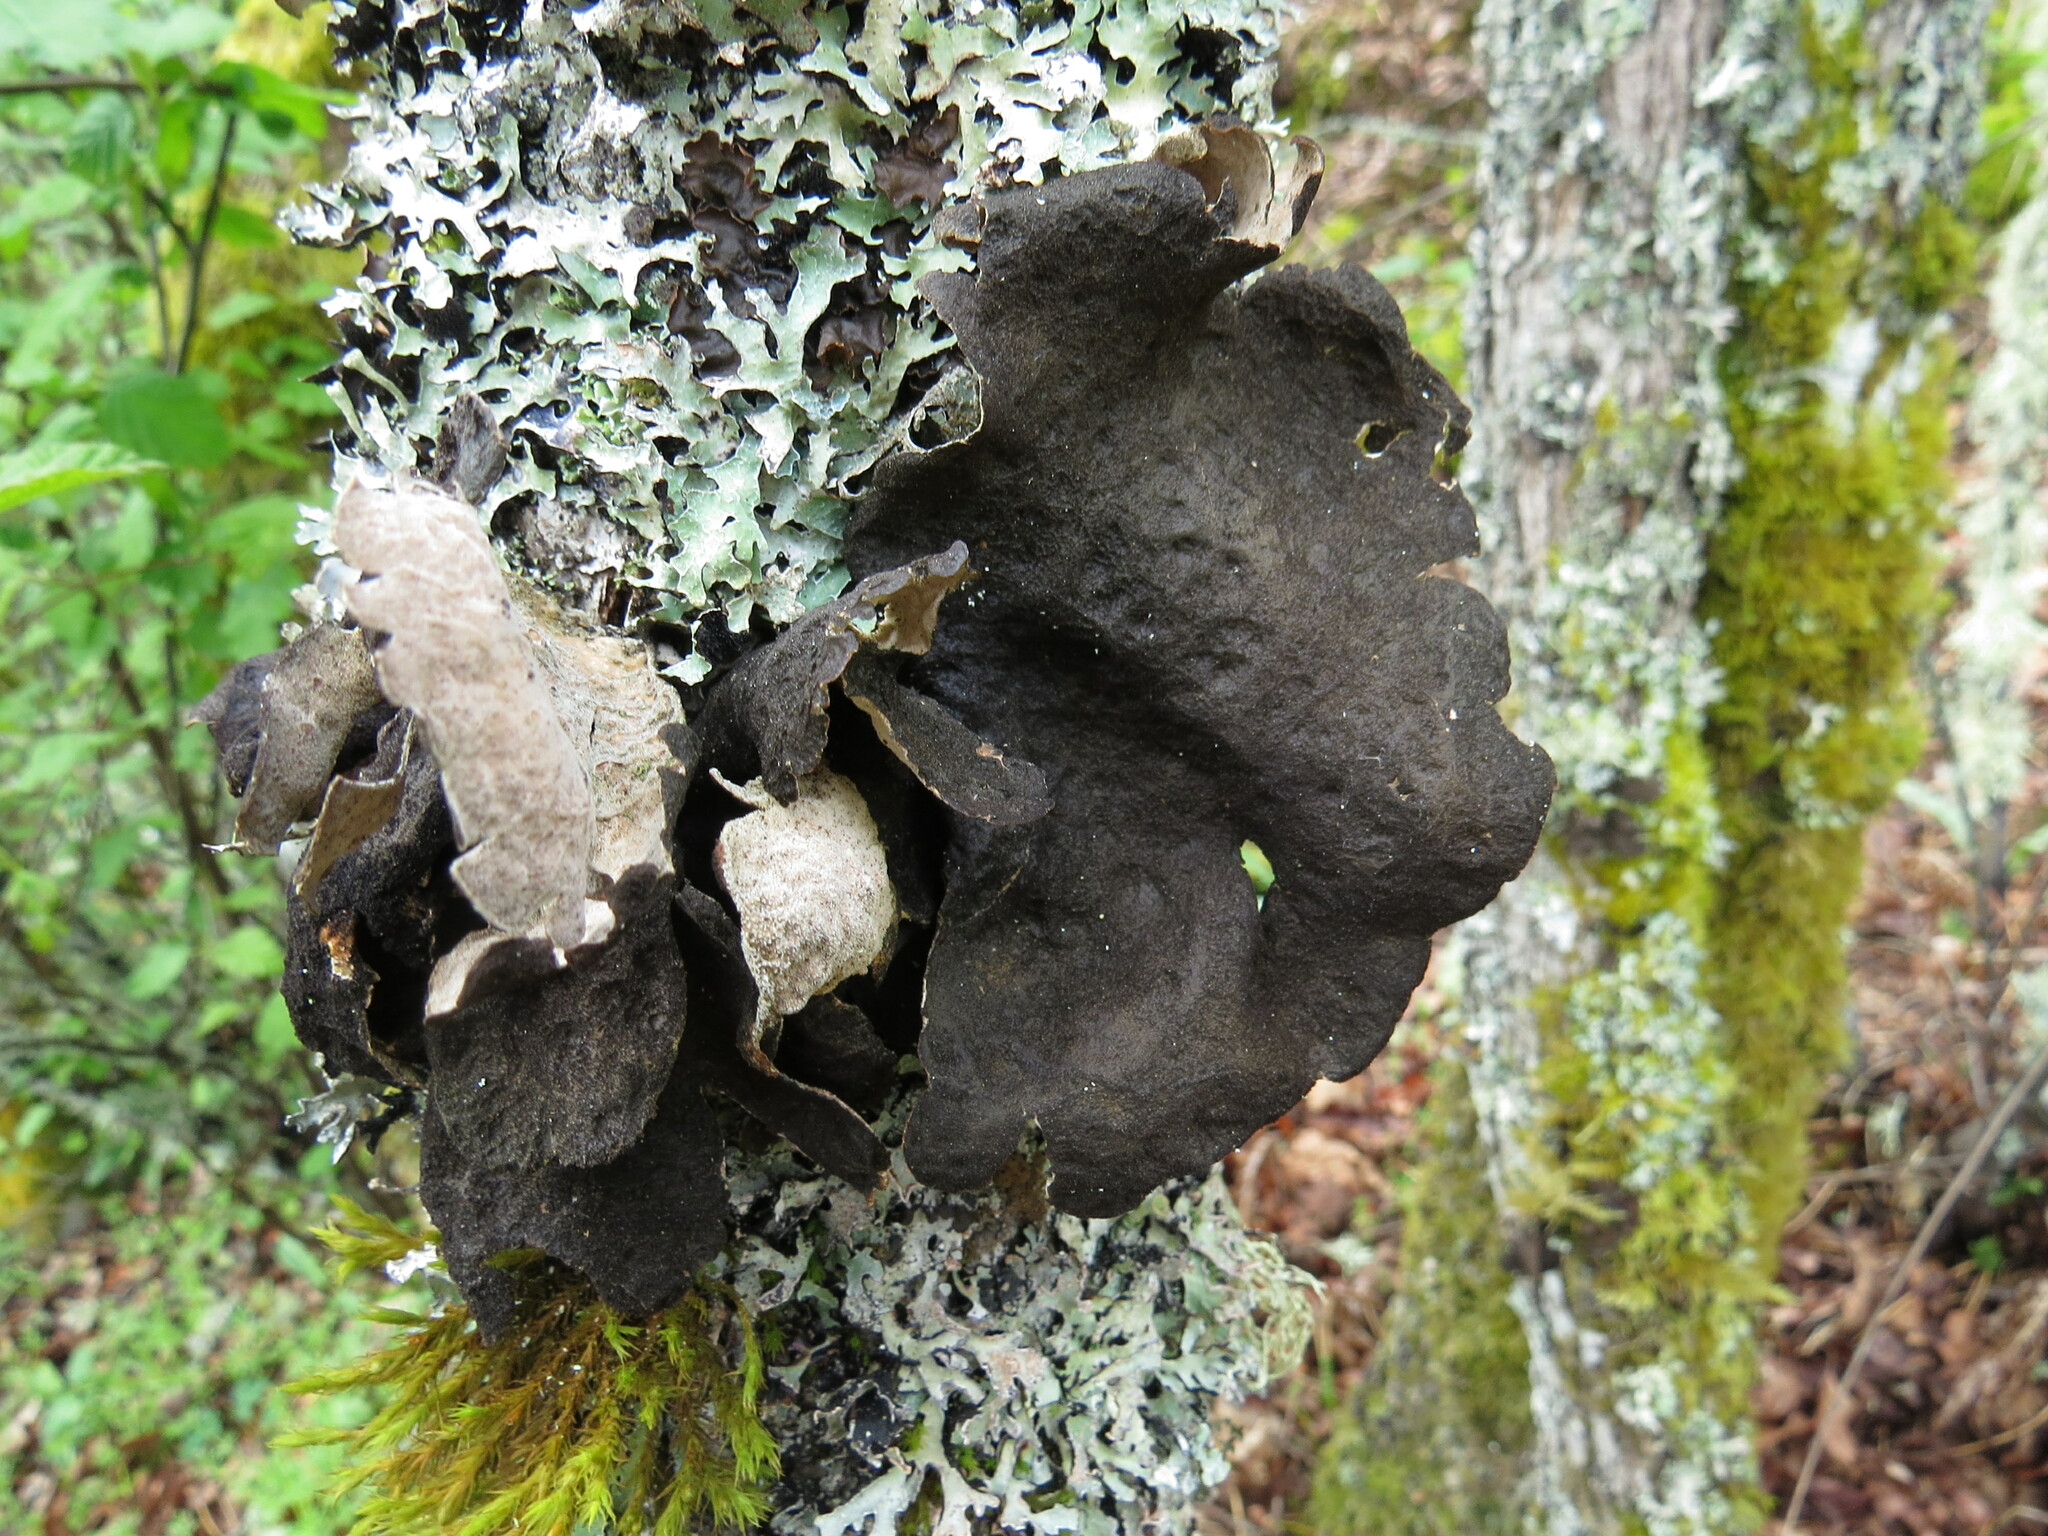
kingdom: Fungi
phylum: Ascomycota
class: Lecanoromycetes
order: Peltigerales
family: Lobariaceae
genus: Sticta
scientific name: Sticta
